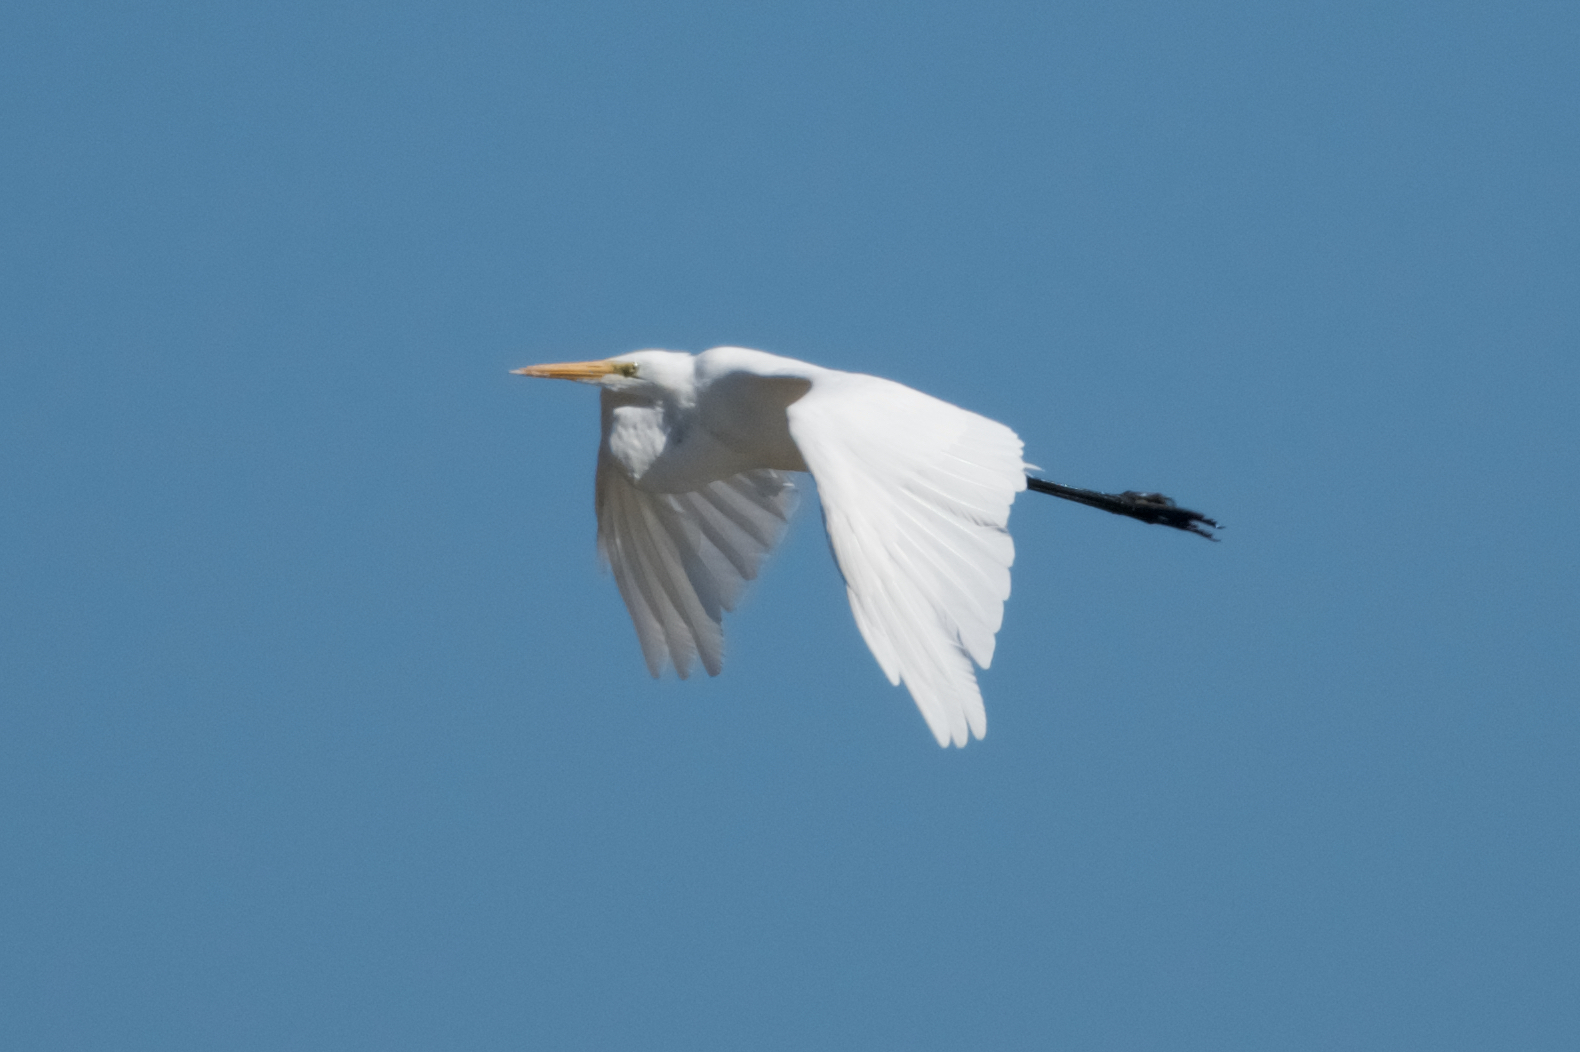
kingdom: Animalia
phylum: Chordata
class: Aves
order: Pelecaniformes
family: Ardeidae
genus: Ardea
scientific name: Ardea alba
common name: Great egret
